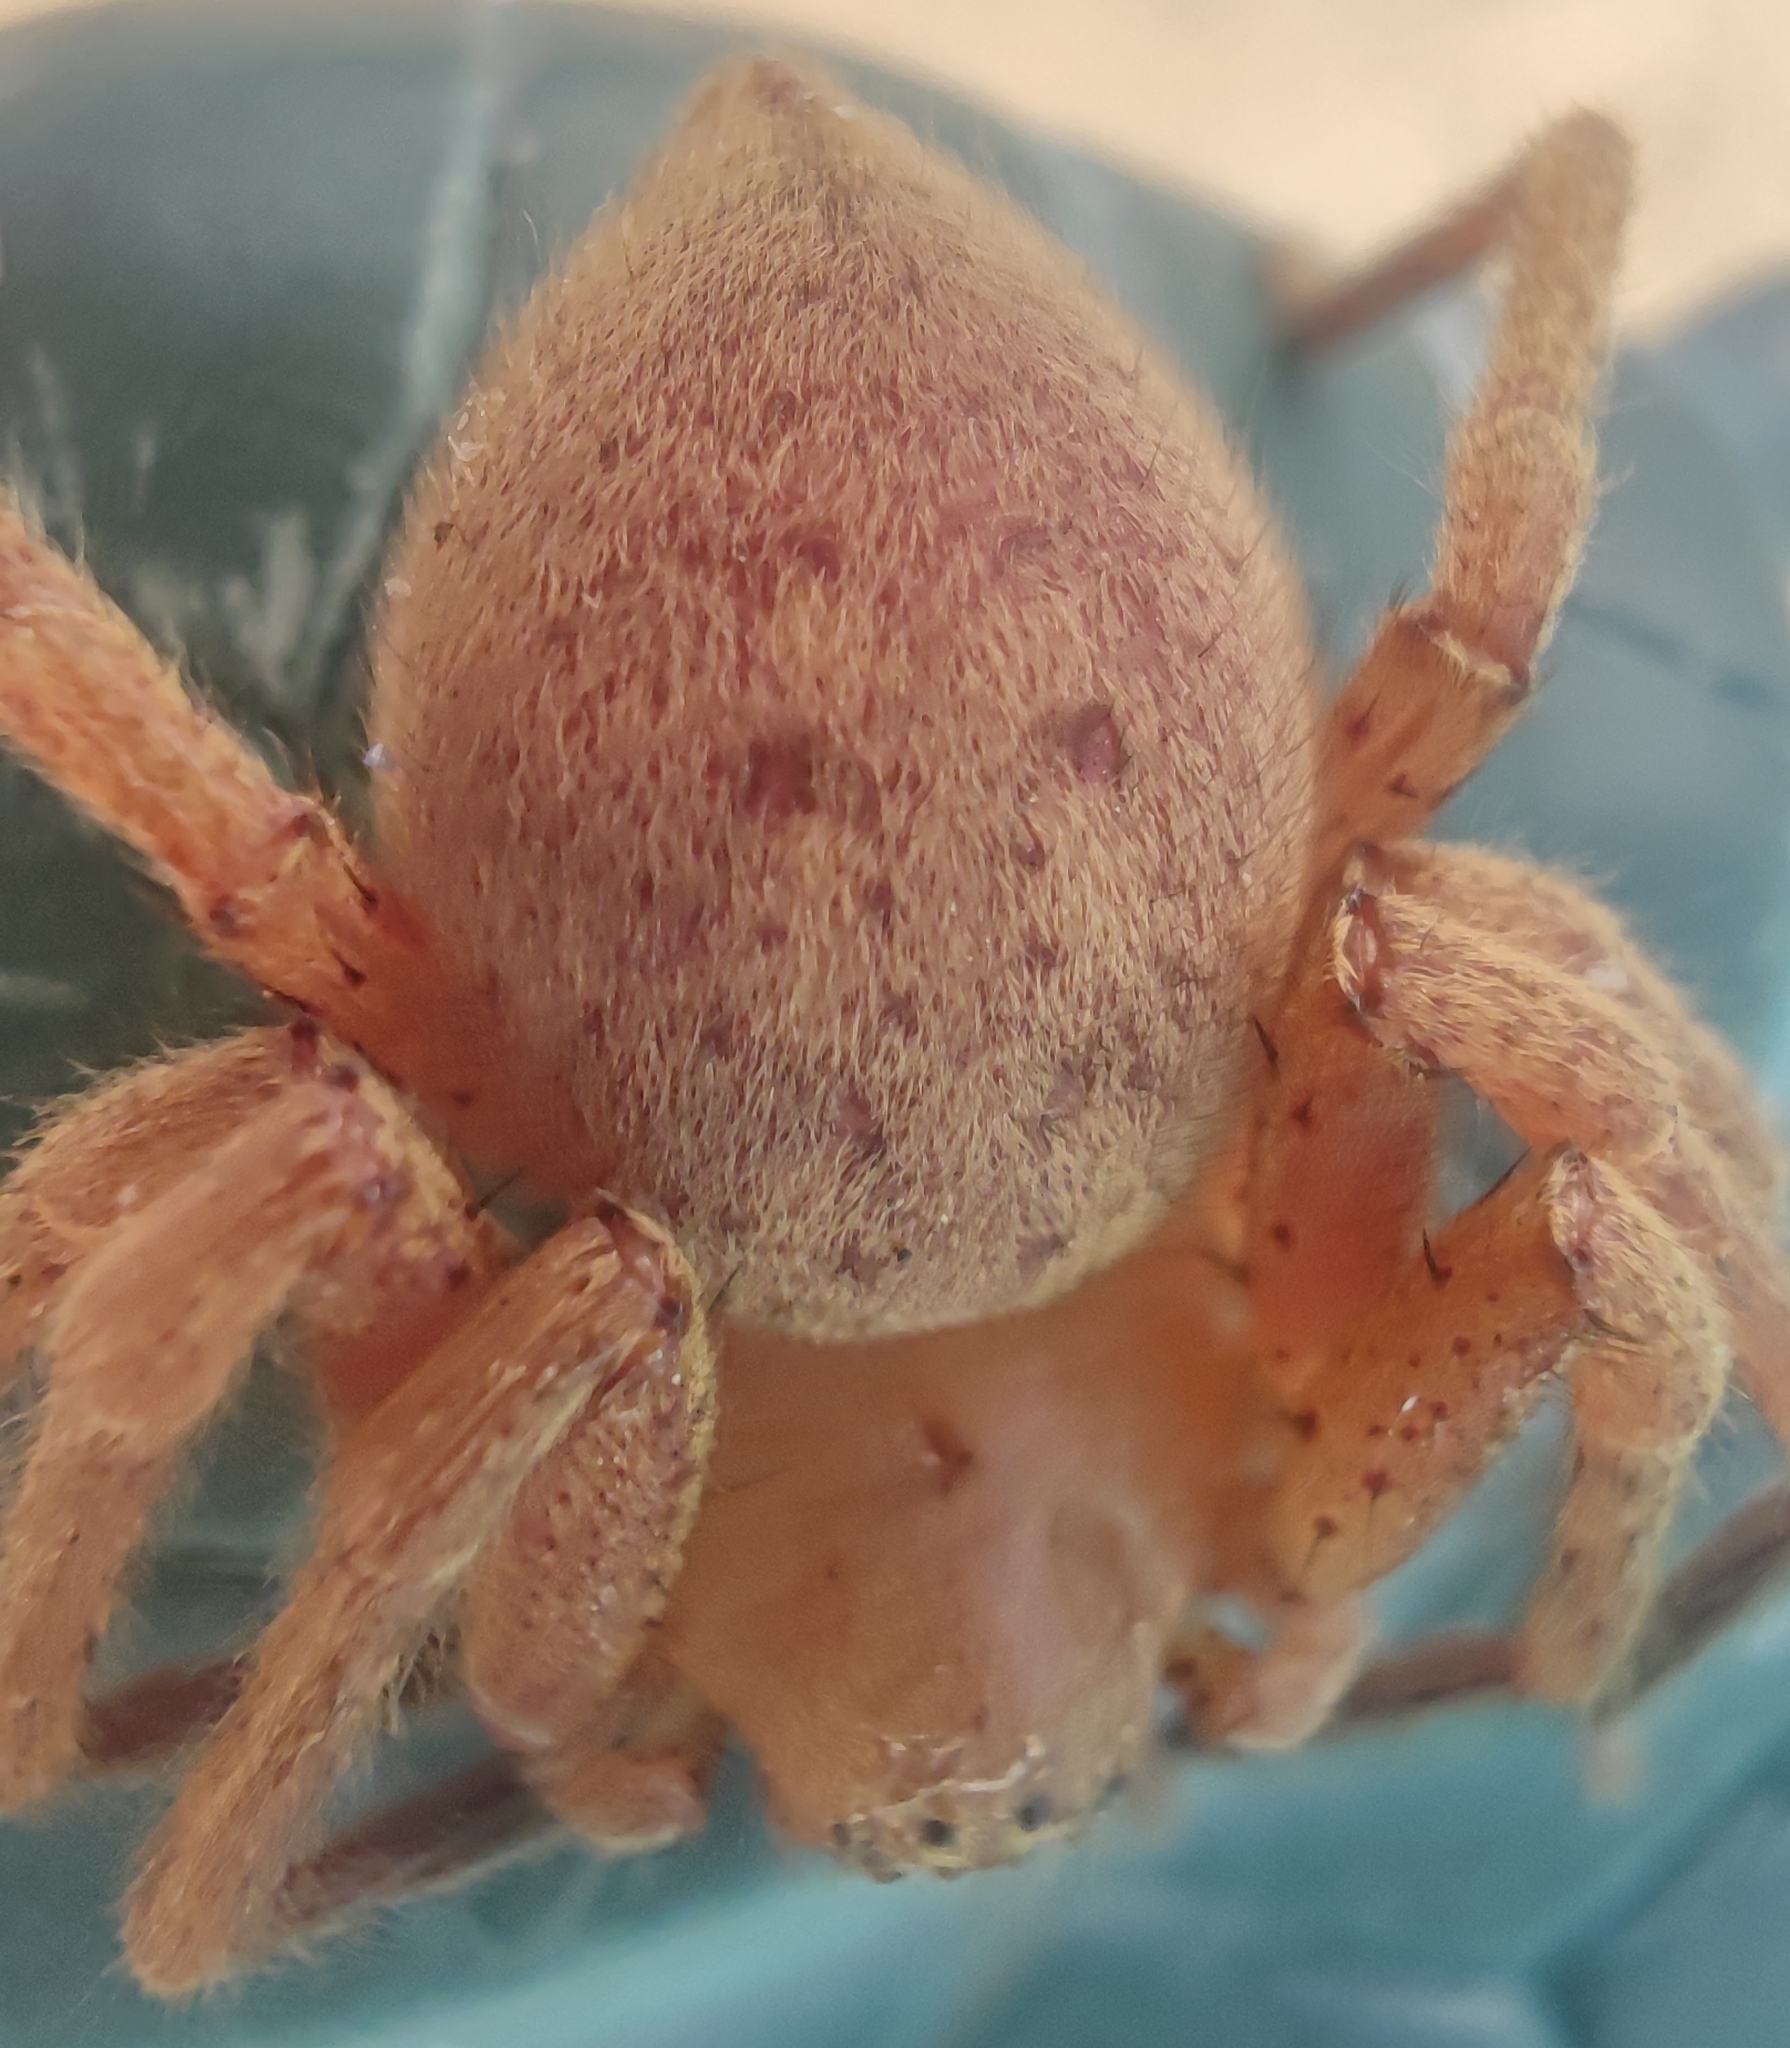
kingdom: Animalia
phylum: Arthropoda
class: Arachnida
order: Araneae
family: Sparassidae
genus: Olios
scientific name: Olios argelasius
